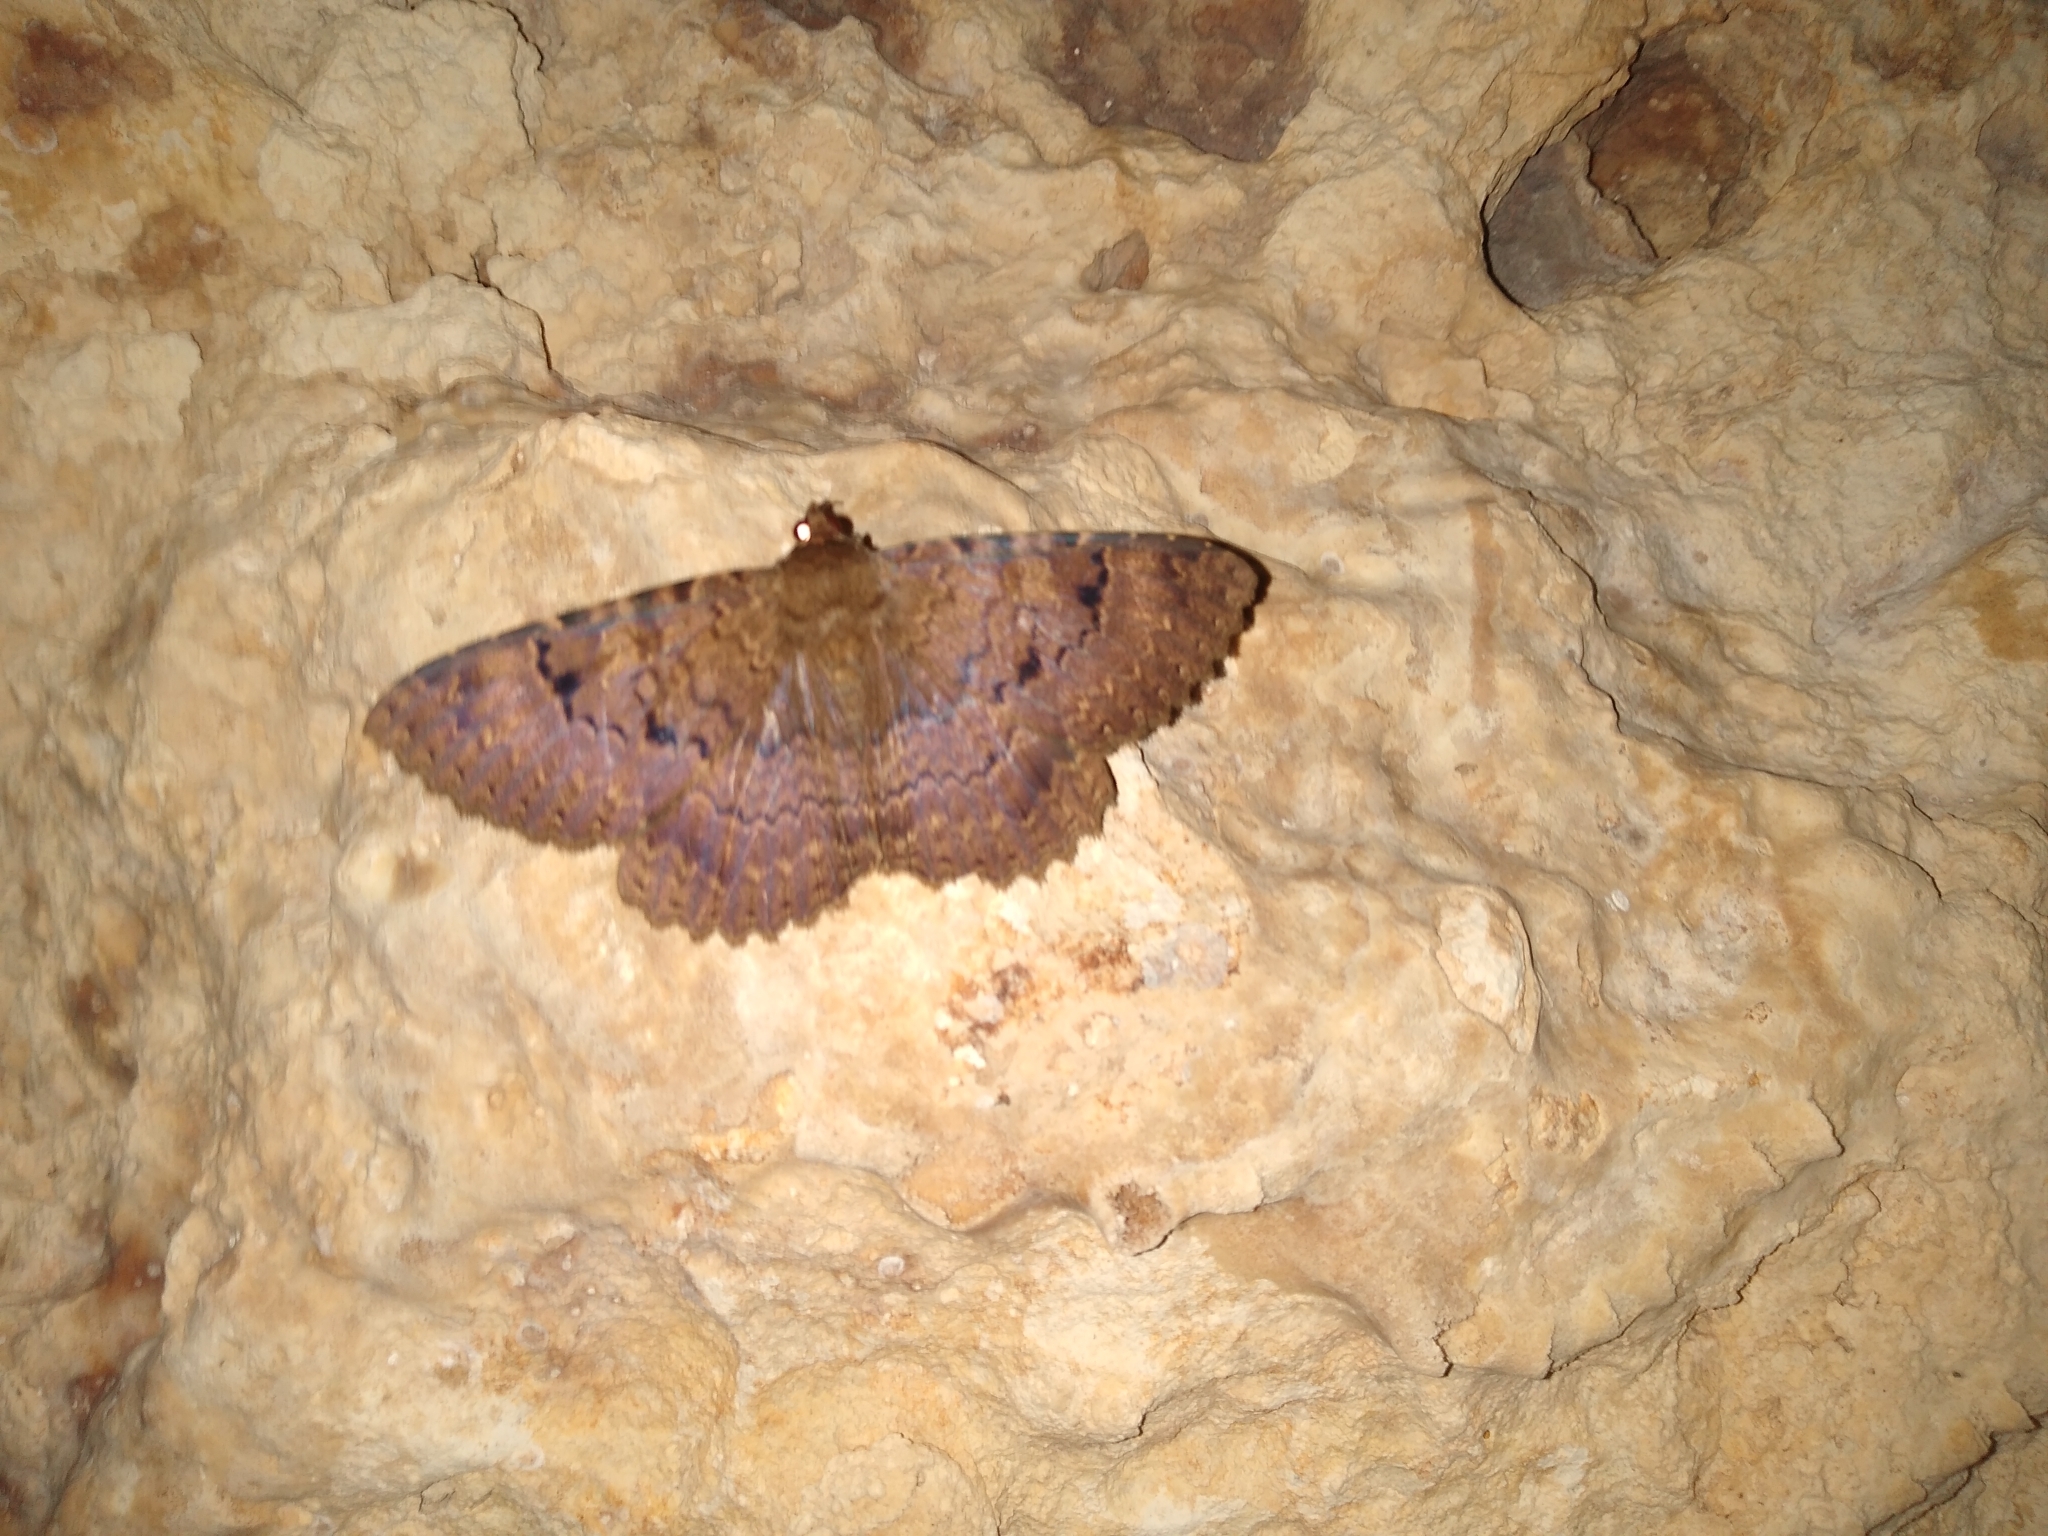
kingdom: Animalia
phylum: Arthropoda
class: Insecta
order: Lepidoptera
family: Erebidae
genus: Latebraria
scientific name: Latebraria amphipyroides
